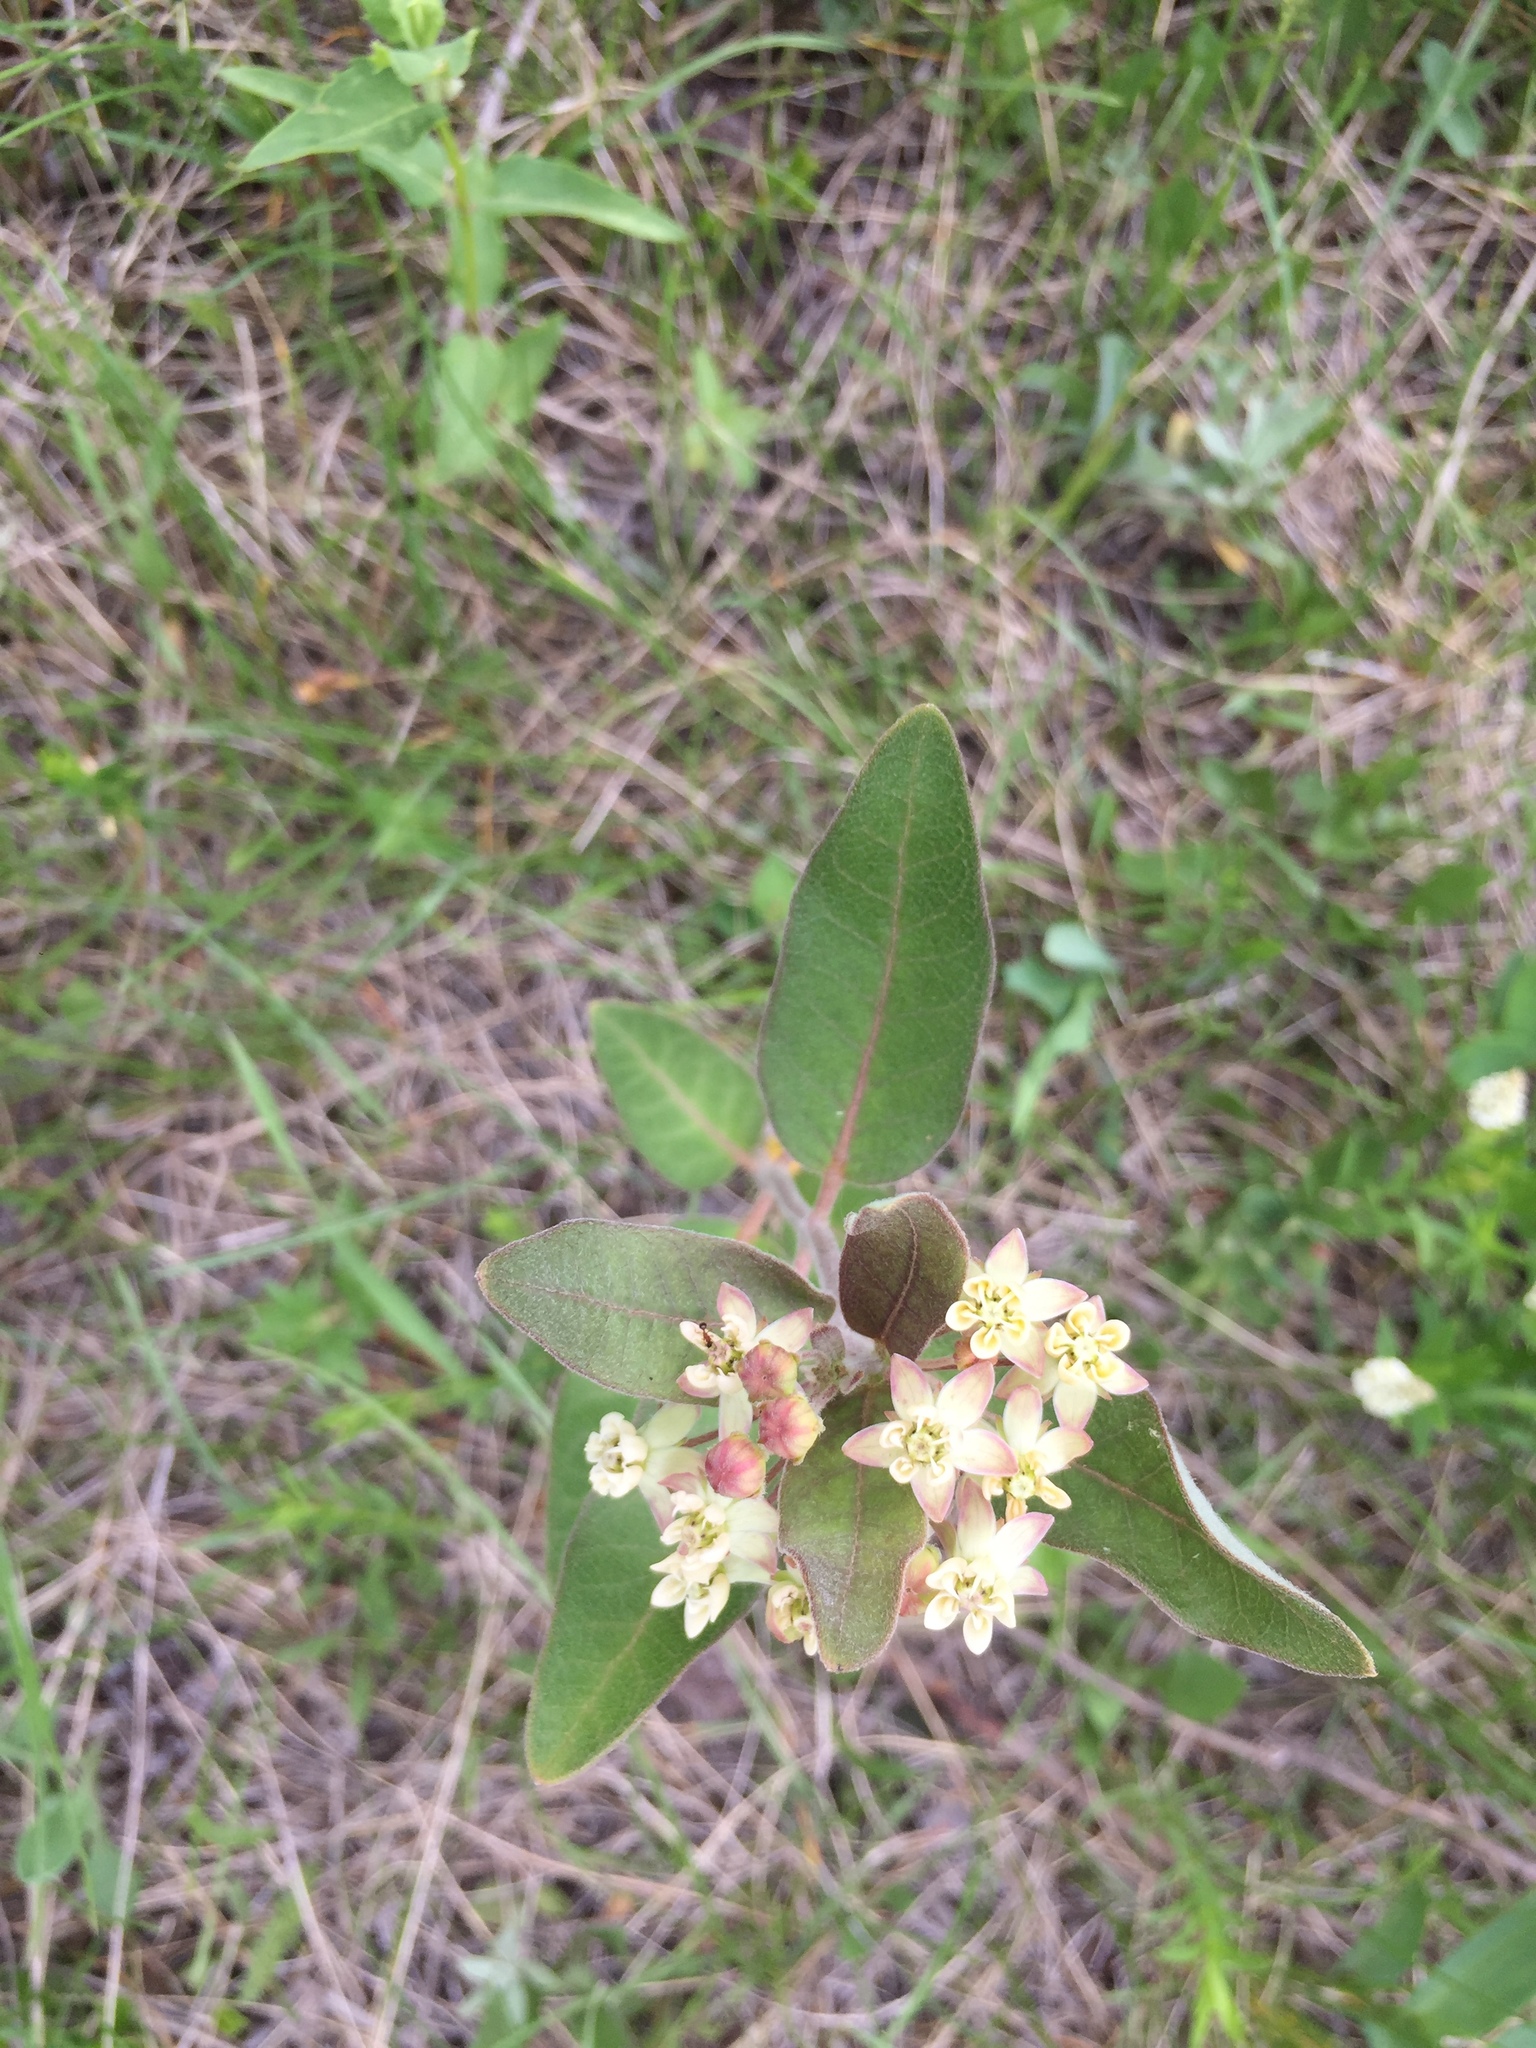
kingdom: Plantae
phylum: Tracheophyta
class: Magnoliopsida
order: Gentianales
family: Apocynaceae
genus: Asclepias
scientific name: Asclepias ovalifolia
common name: Dwarf milkweed
